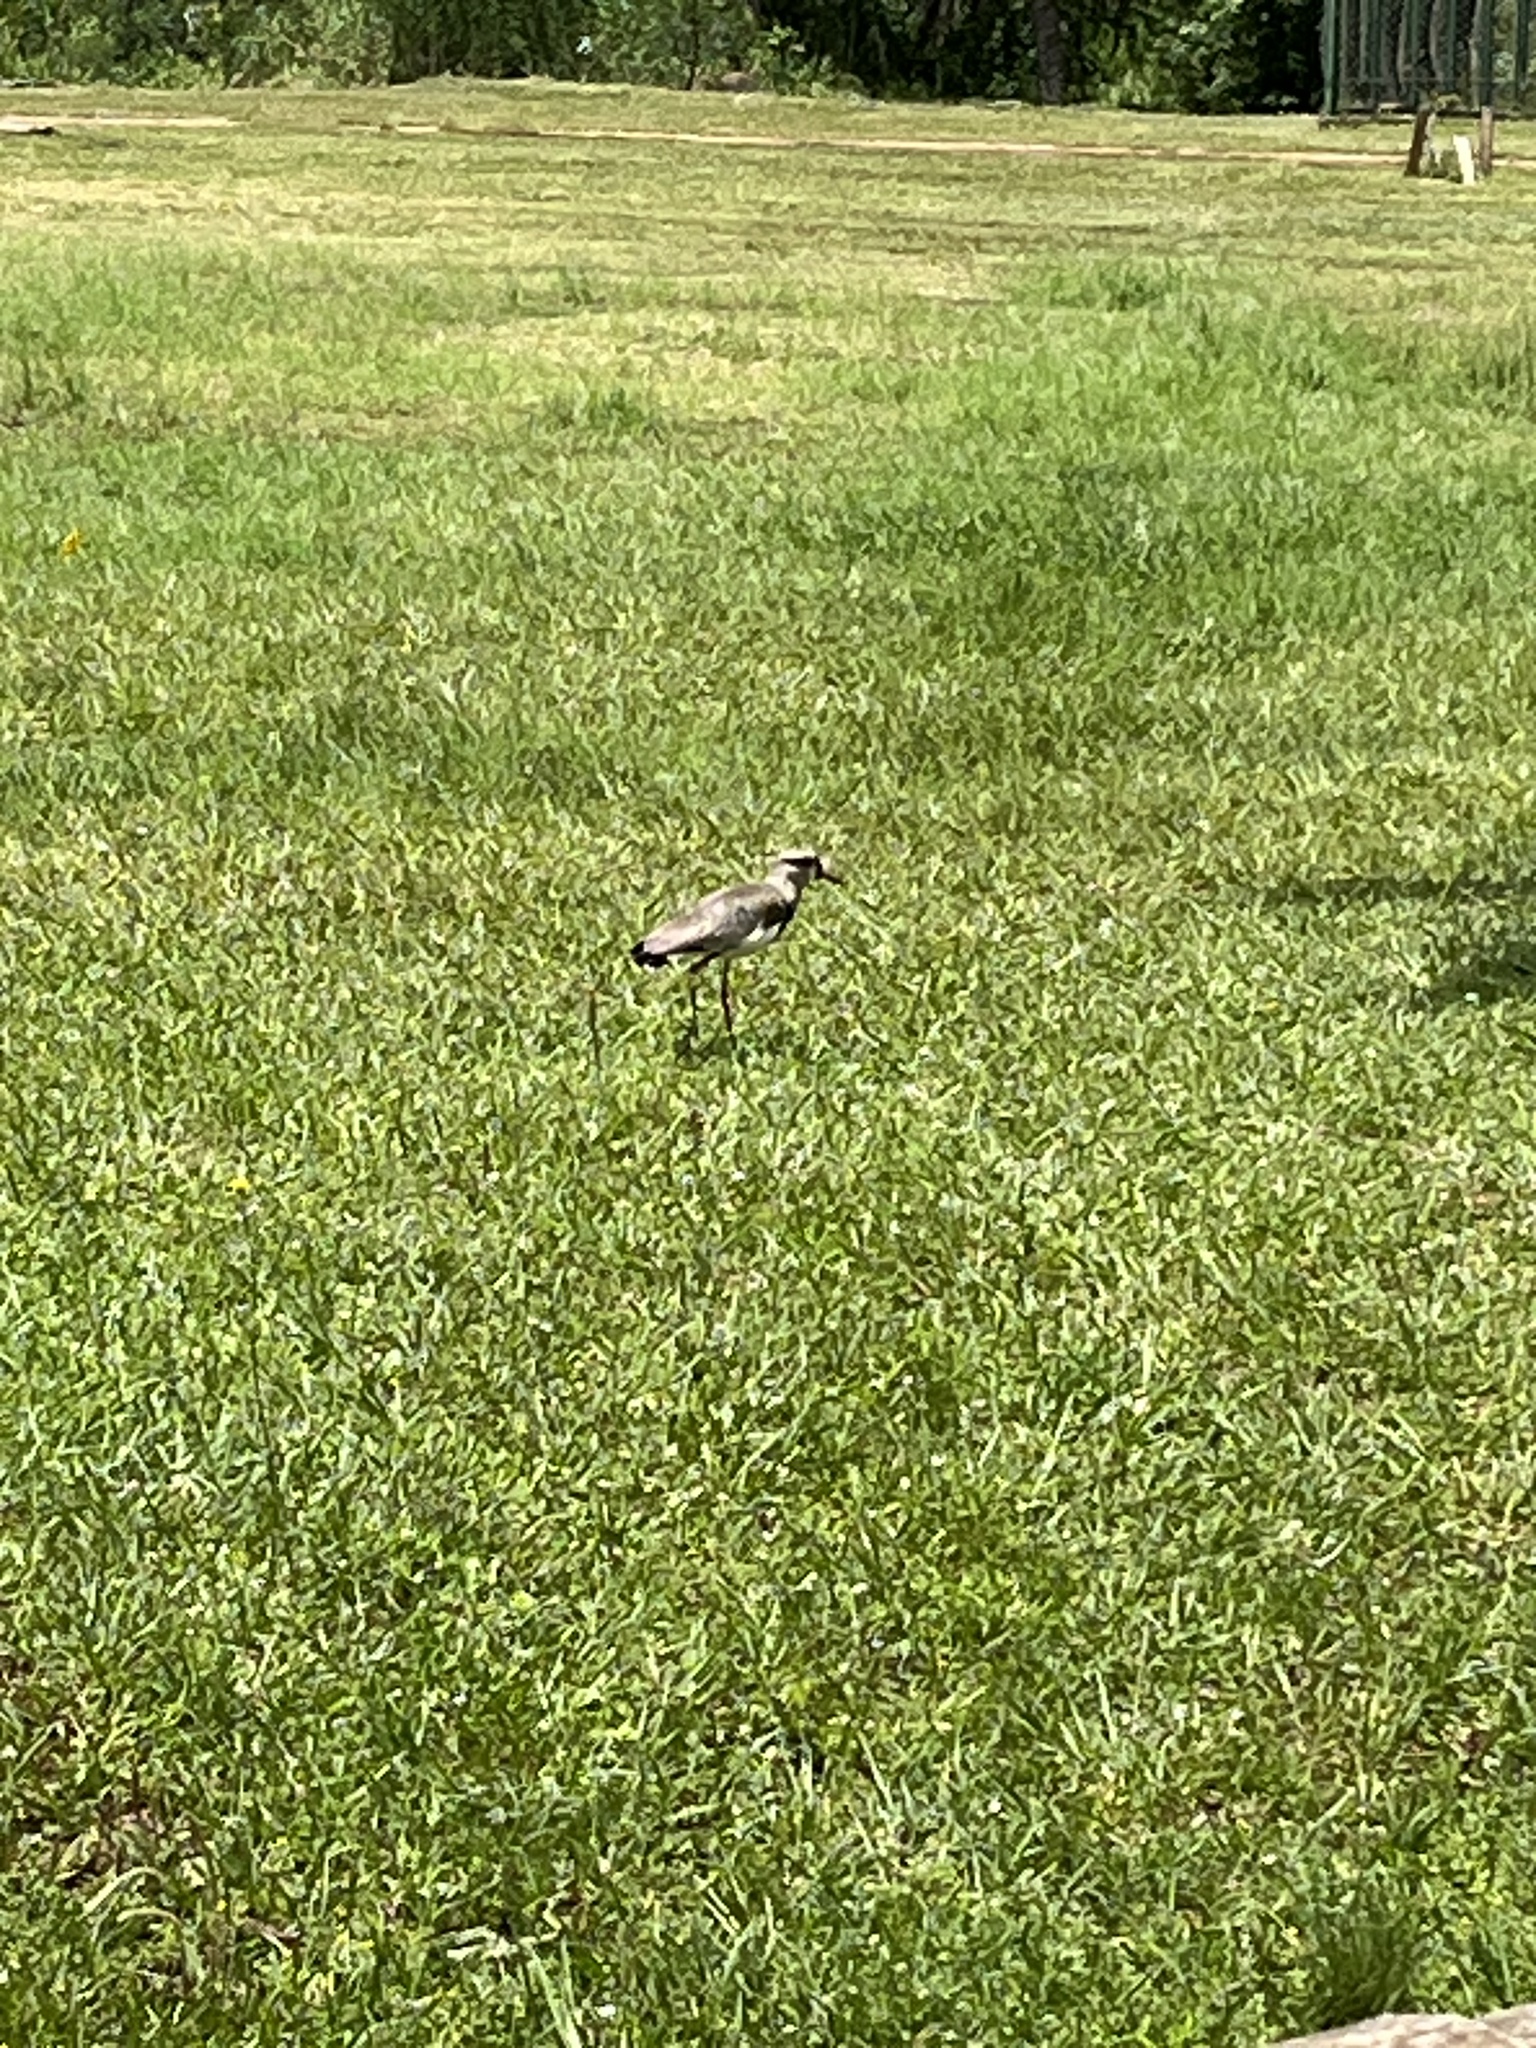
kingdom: Animalia
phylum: Chordata
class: Aves
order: Charadriiformes
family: Charadriidae
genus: Vanellus
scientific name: Vanellus chilensis
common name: Southern lapwing
